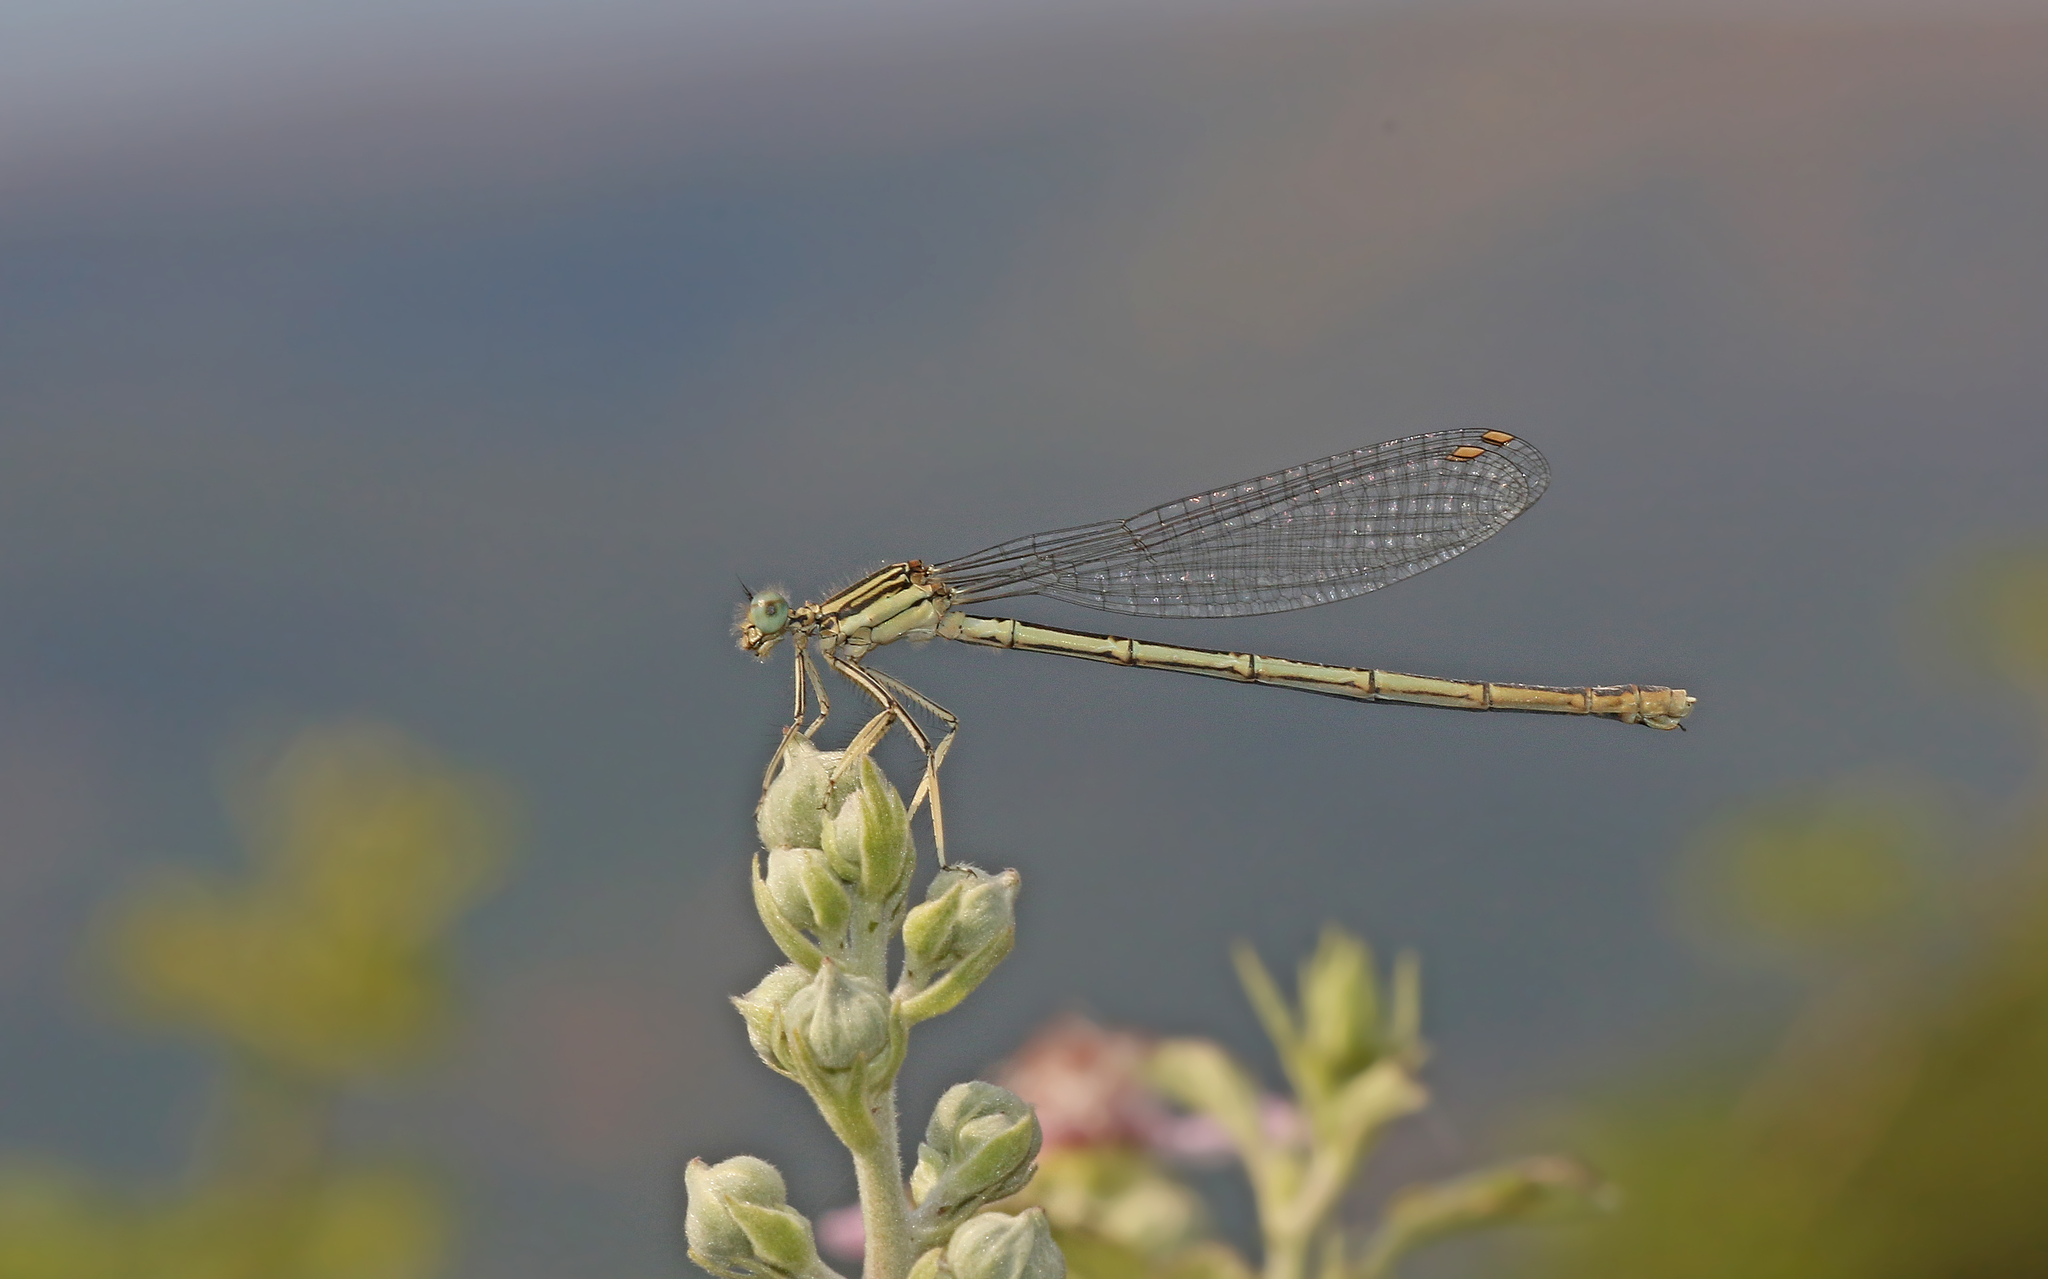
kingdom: Animalia
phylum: Arthropoda
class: Insecta
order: Odonata
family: Platycnemididae
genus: Platycnemis
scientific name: Platycnemis pennipes
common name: White-legged damselfly
